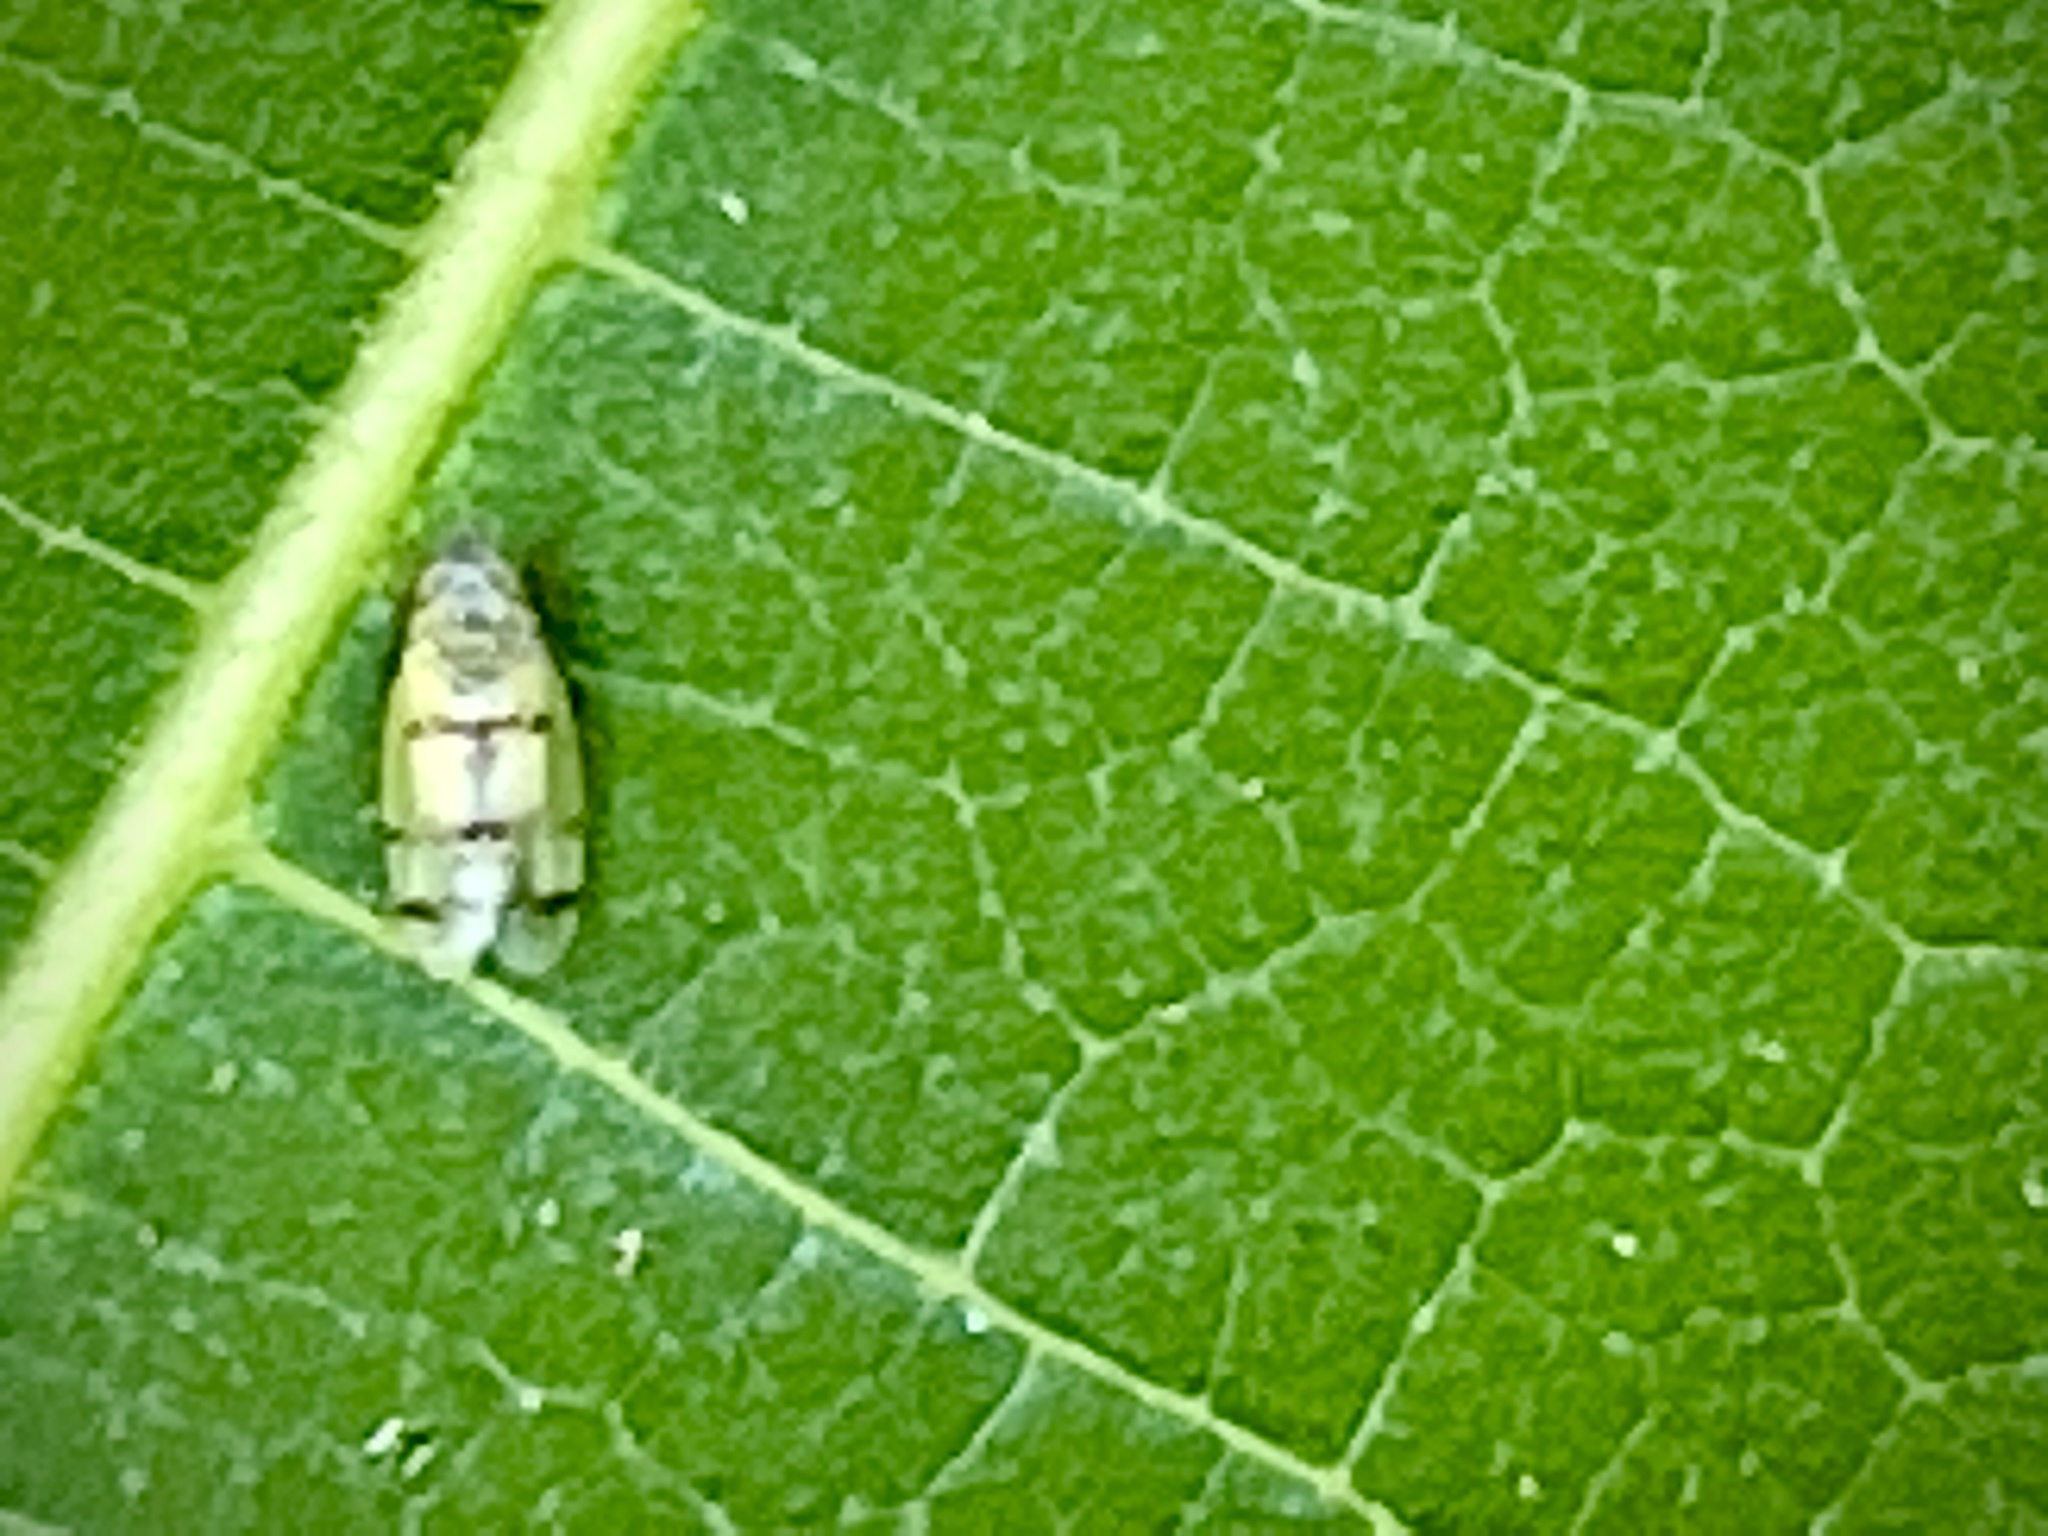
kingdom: Animalia
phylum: Arthropoda
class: Insecta
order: Hemiptera
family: Cicadellidae
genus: Japananus
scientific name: Japananus hyalinus
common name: The japanese maple leafhopper
